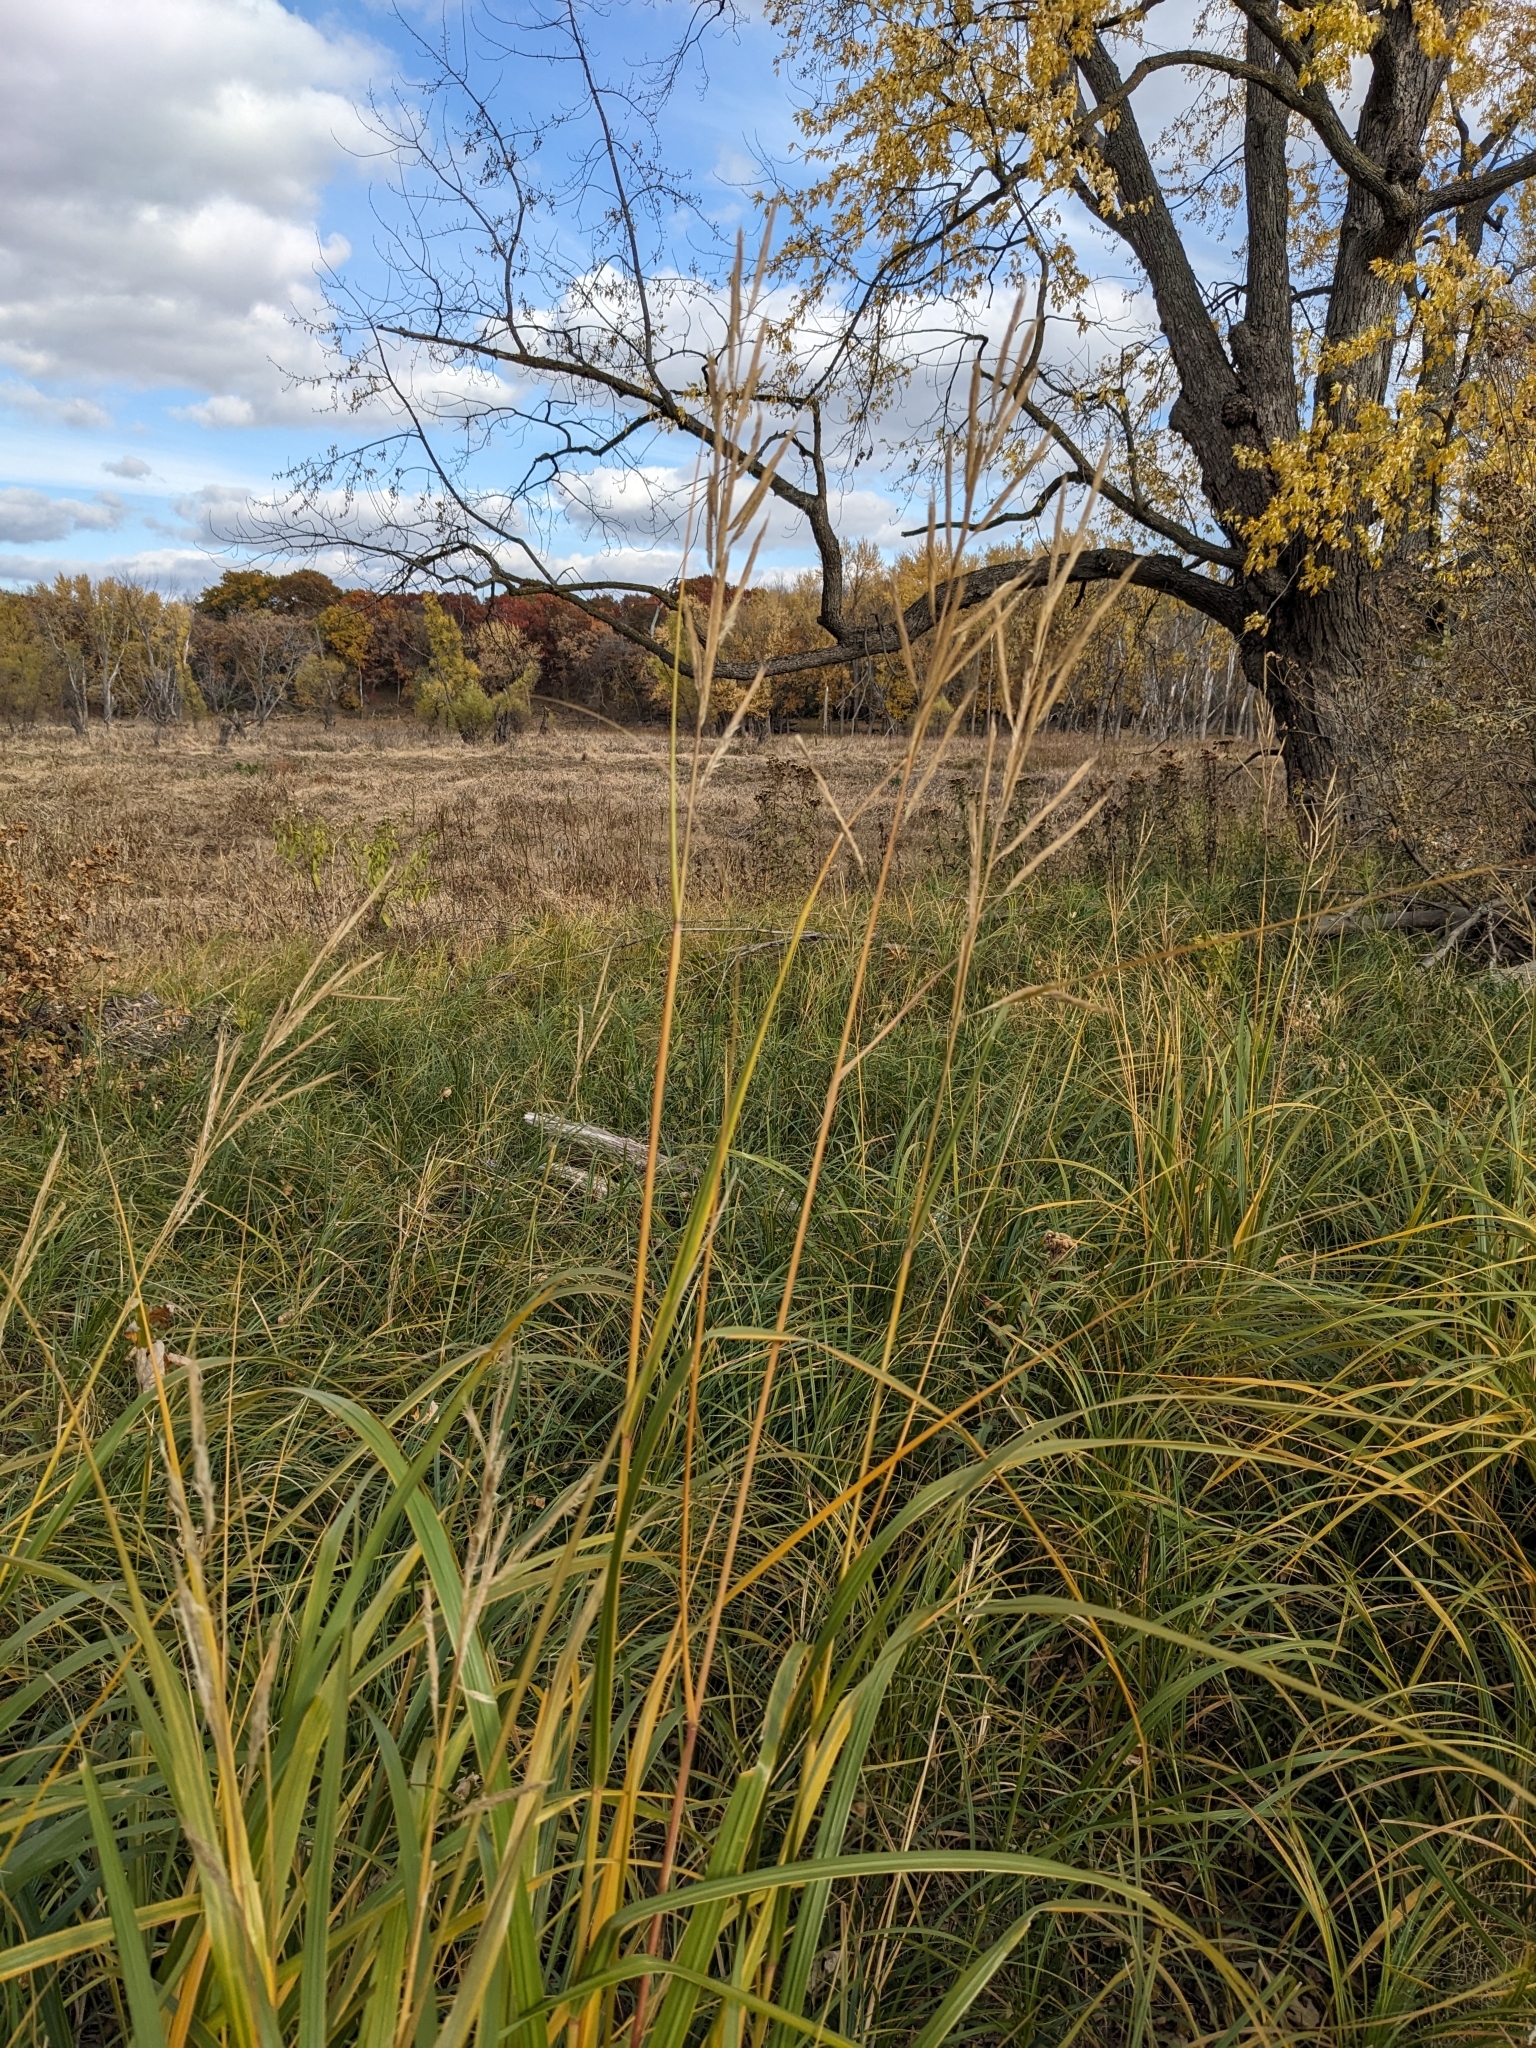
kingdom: Plantae
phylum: Tracheophyta
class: Liliopsida
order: Poales
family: Poaceae
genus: Sporobolus
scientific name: Sporobolus michauxianus
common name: Freshwater cordgrass
